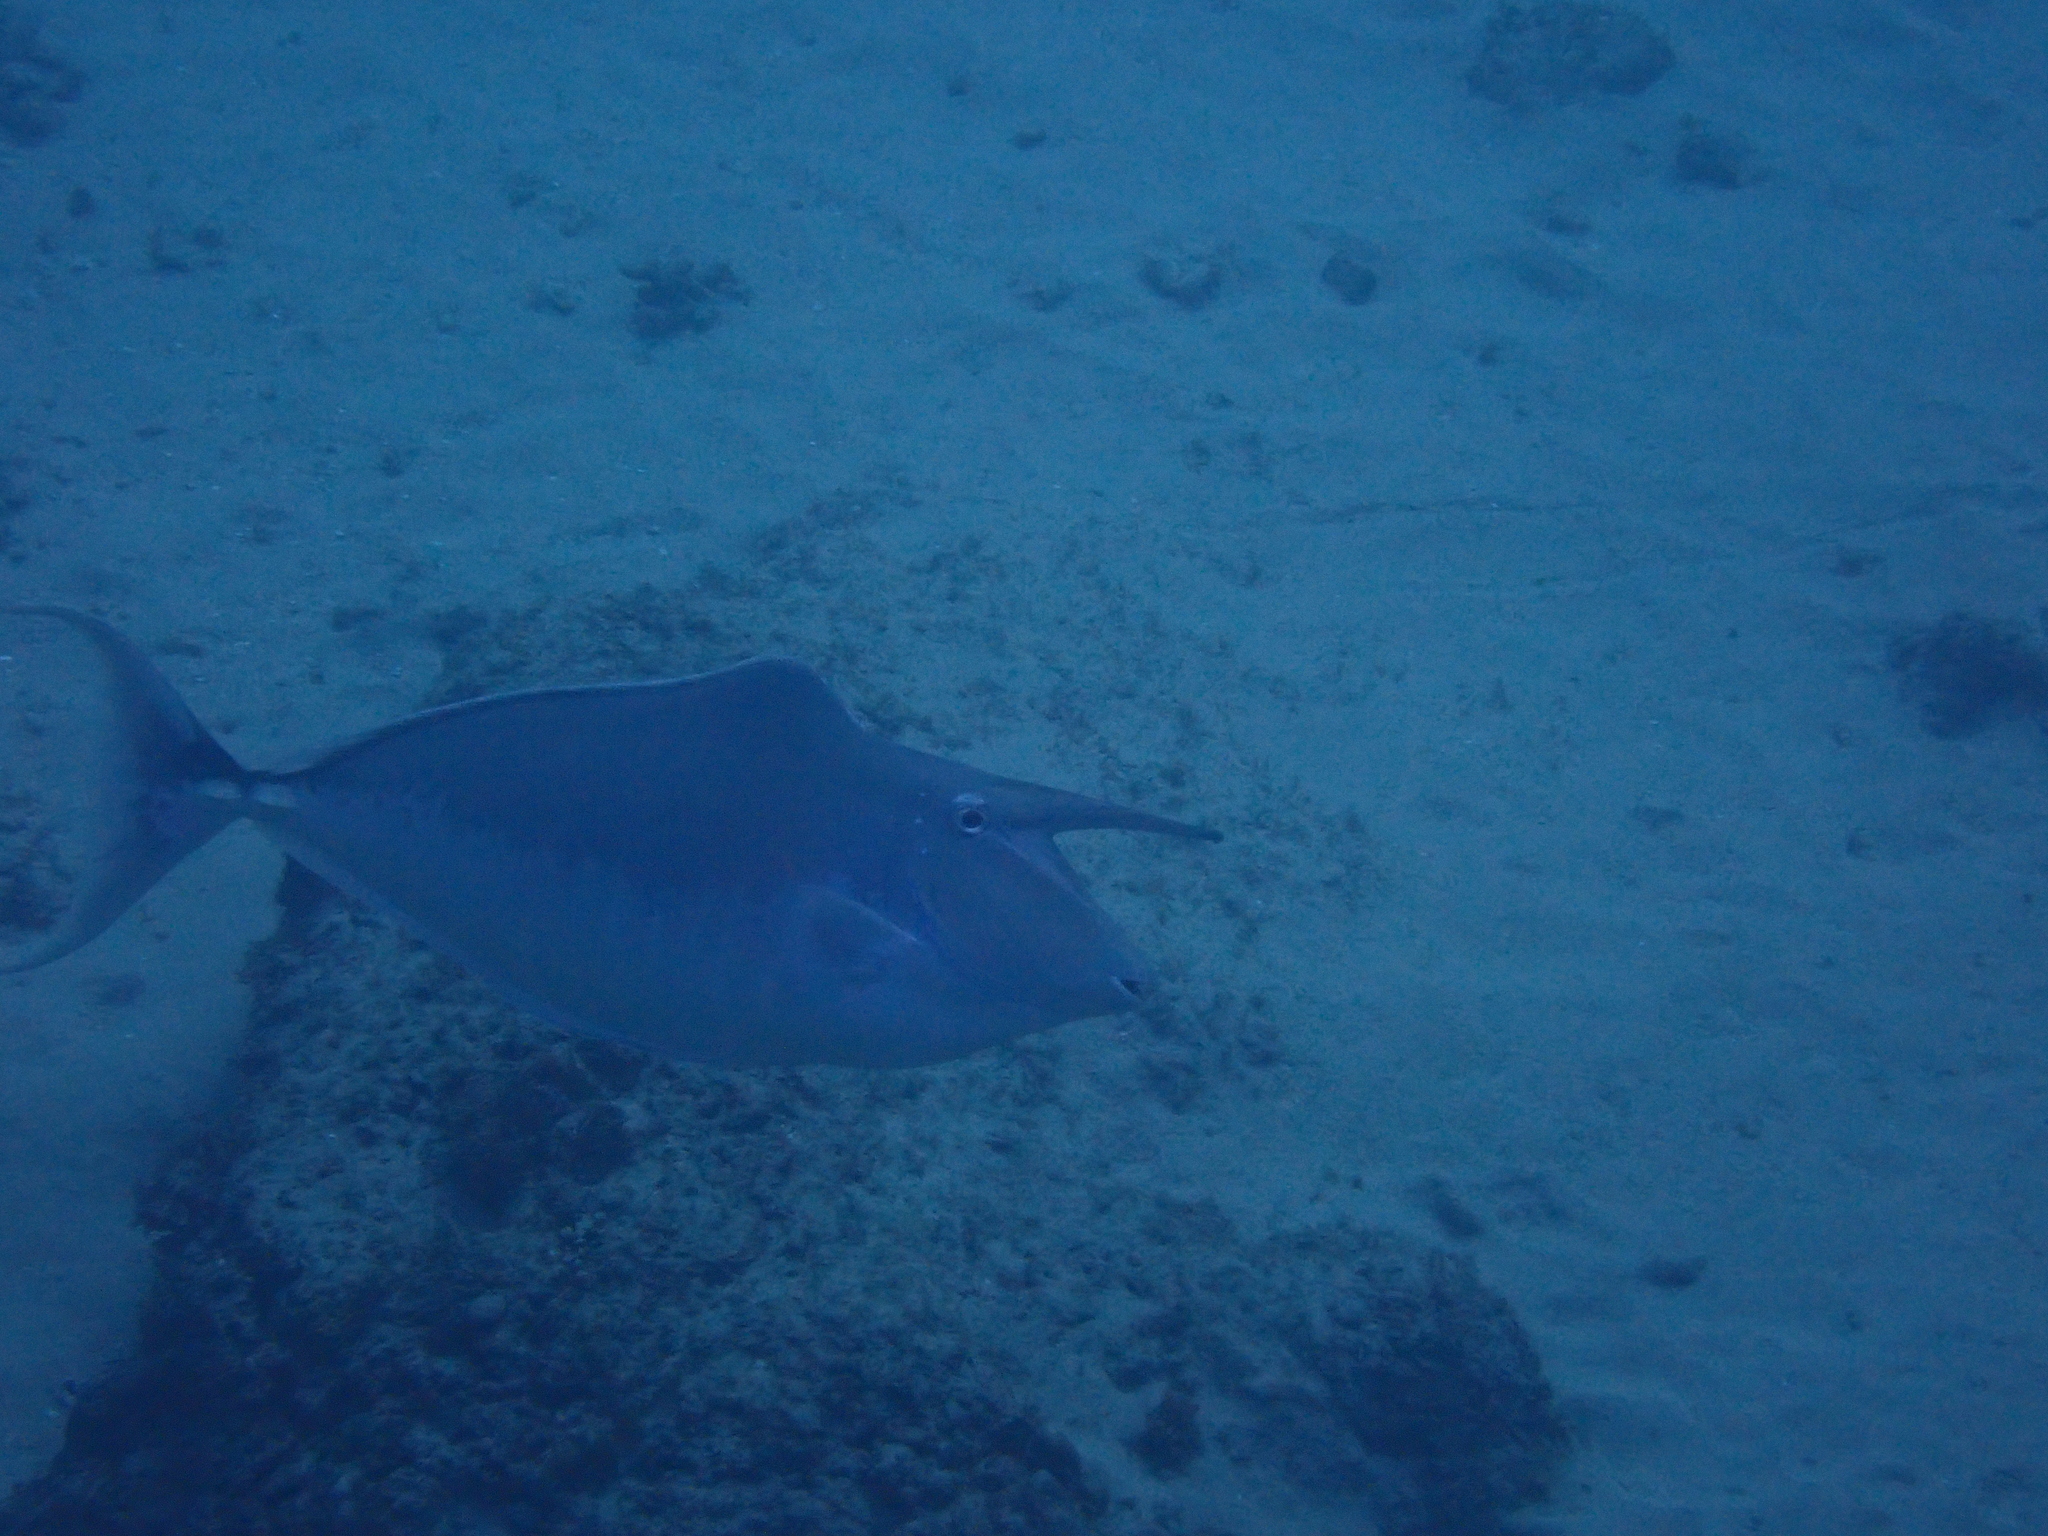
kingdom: Animalia
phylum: Chordata
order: Perciformes
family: Acanthuridae
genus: Naso
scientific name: Naso brachycentron
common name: Humpback unicornfish
